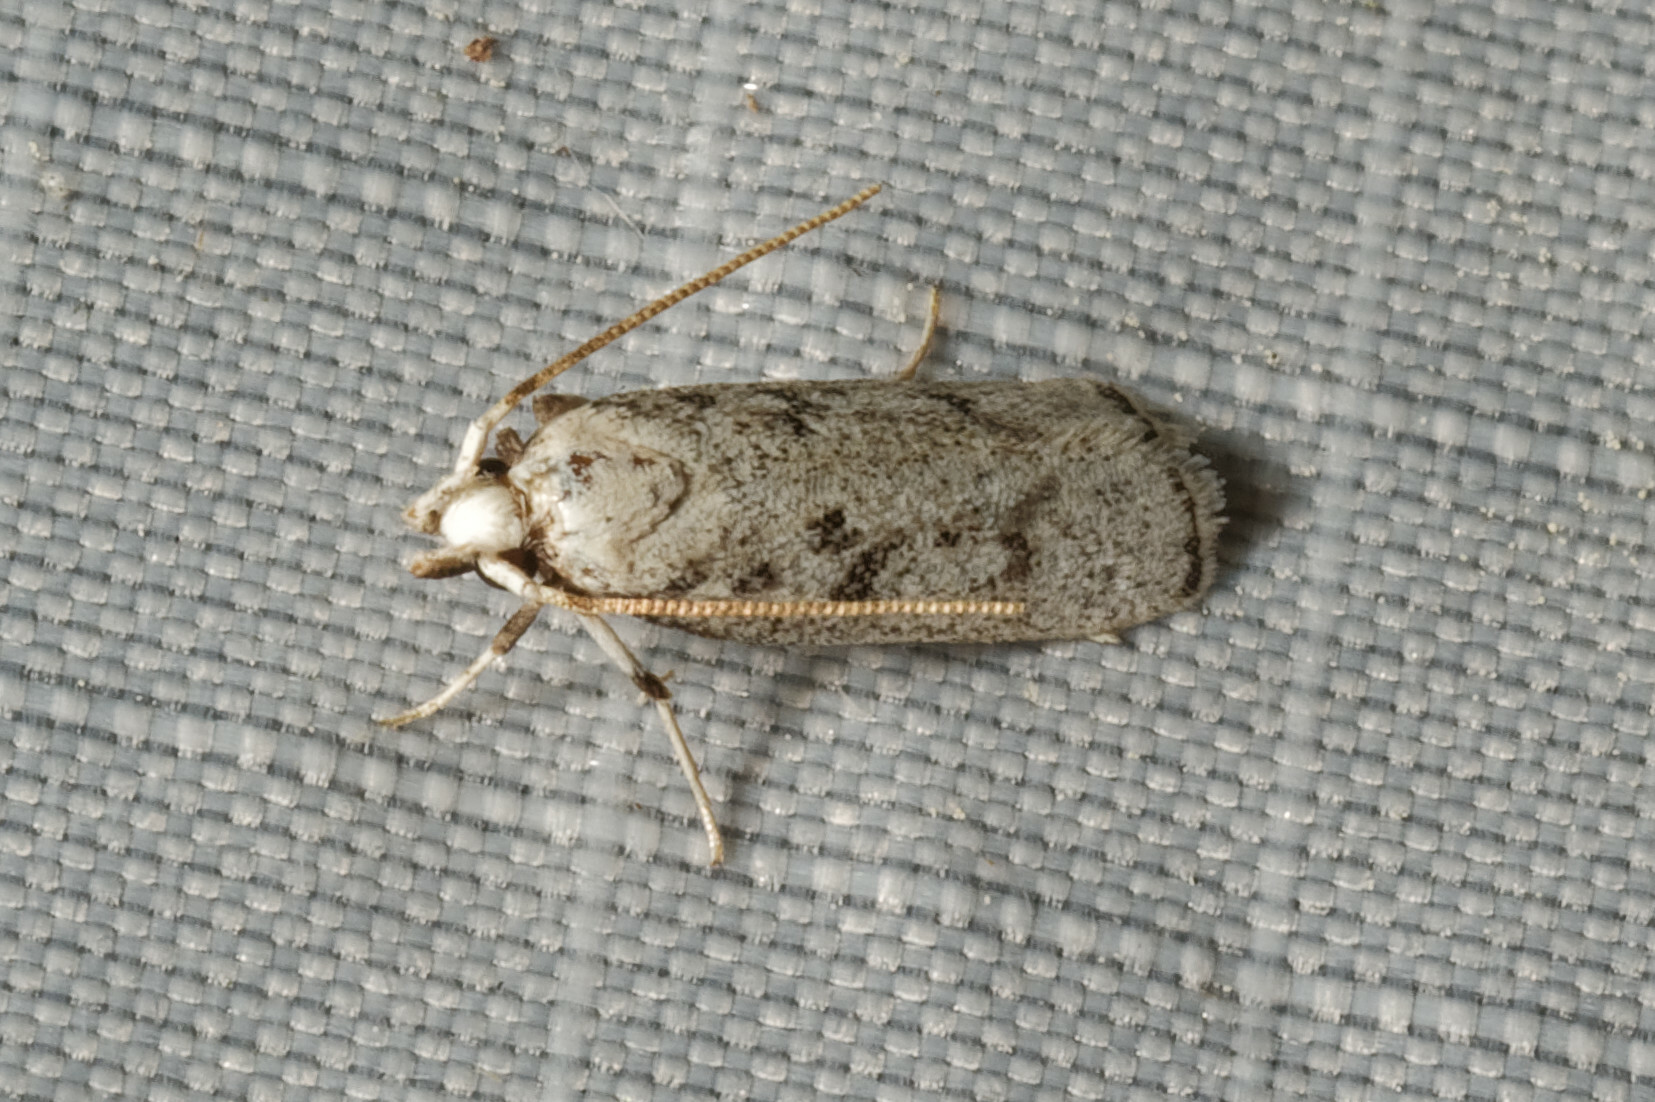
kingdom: Animalia
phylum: Arthropoda
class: Insecta
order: Lepidoptera
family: Autostichidae
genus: Glyphidocera
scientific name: Glyphidocera lactiflosella
